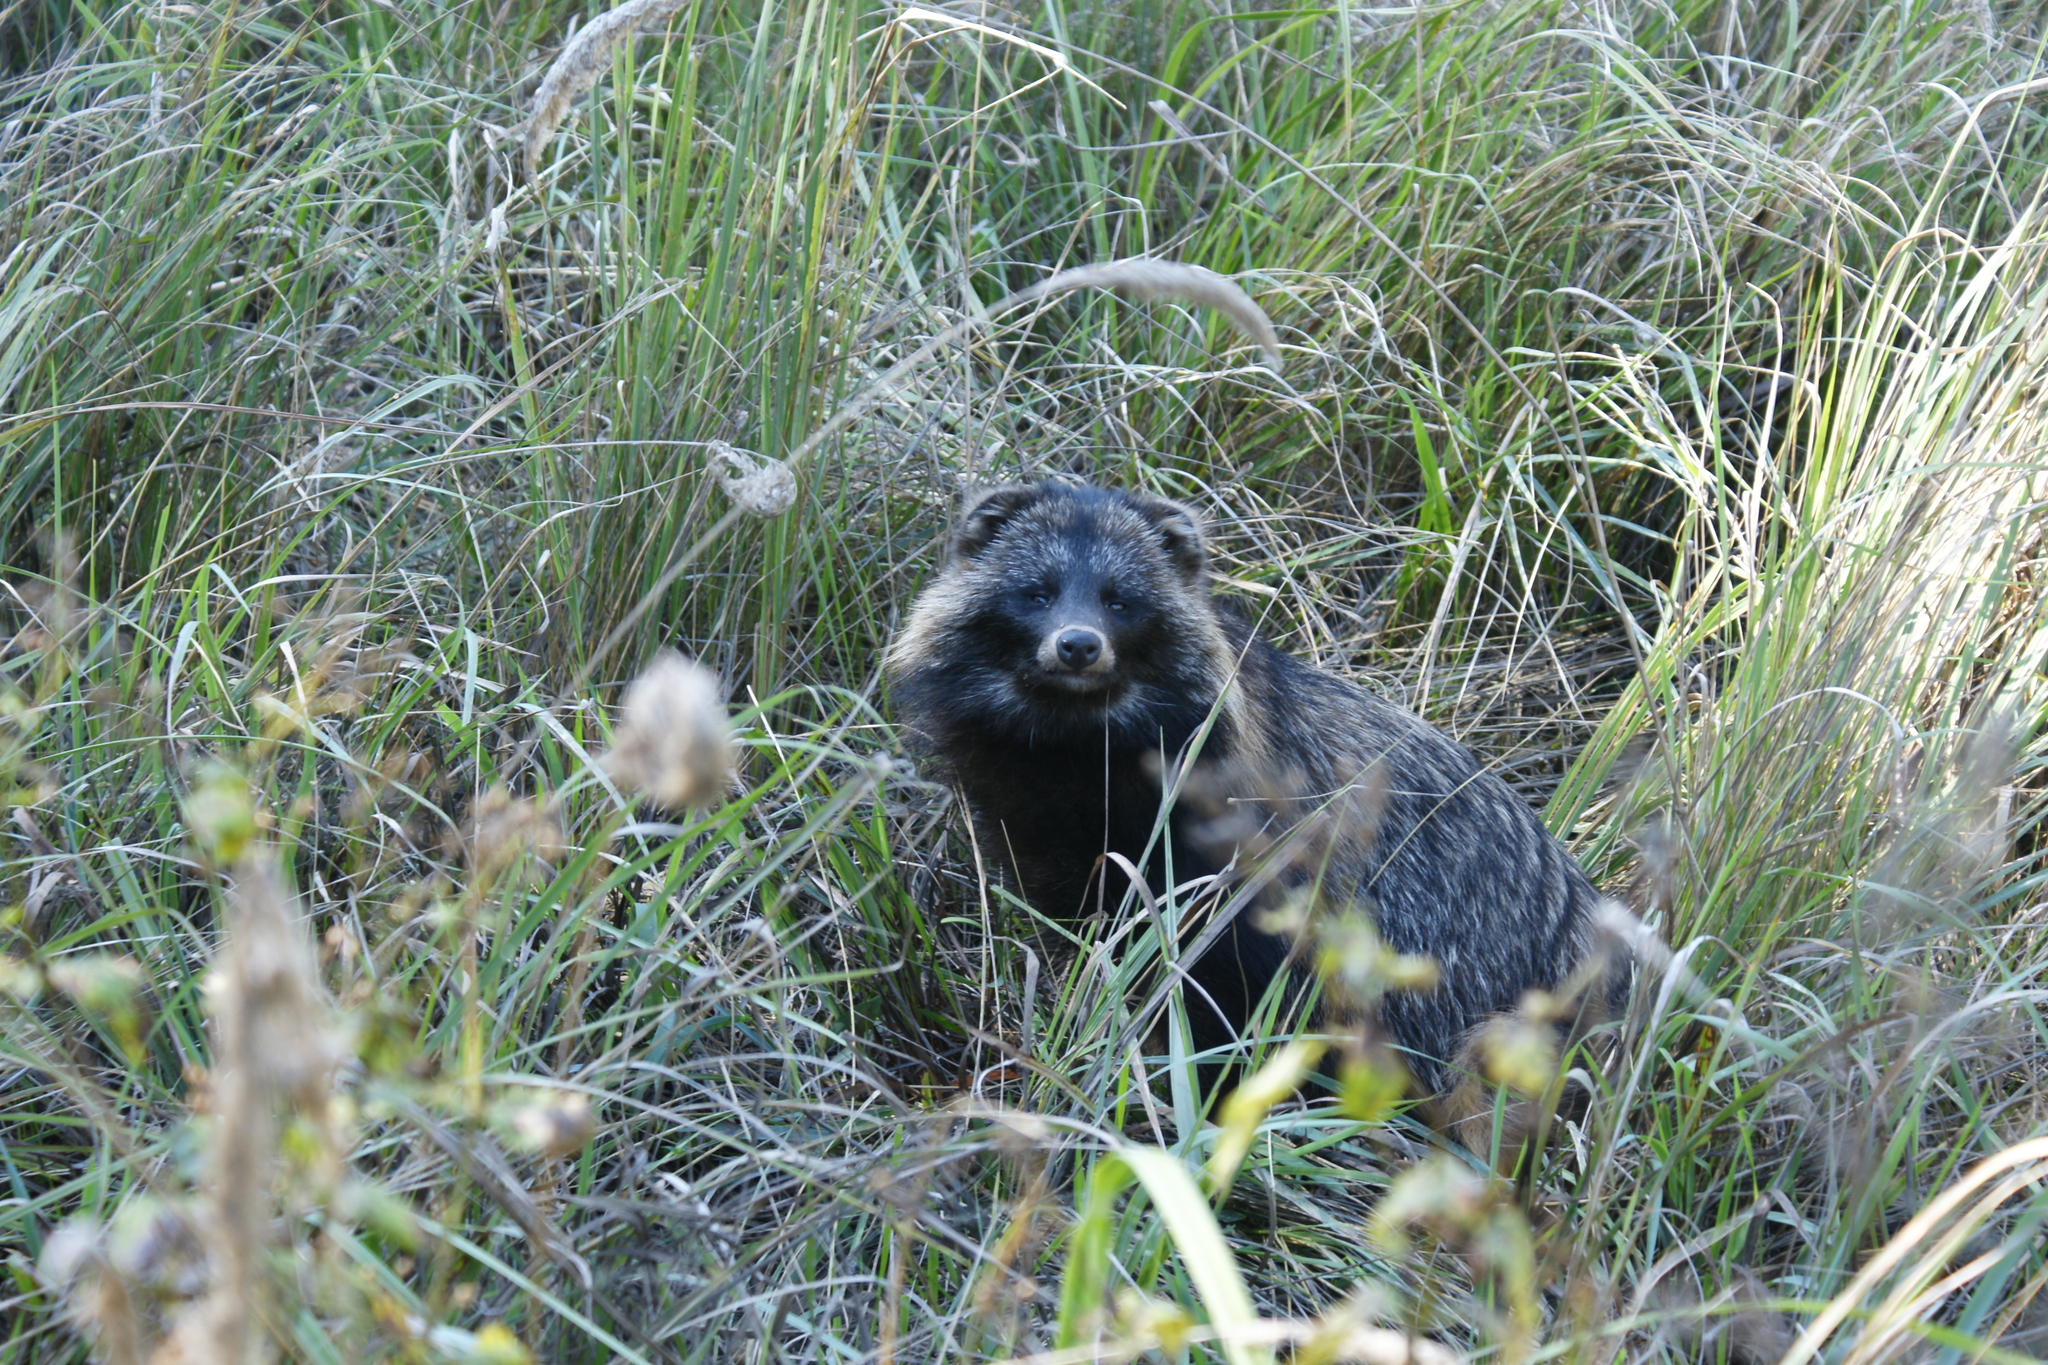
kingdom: Animalia
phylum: Chordata
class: Mammalia
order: Carnivora
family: Canidae
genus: Nyctereutes
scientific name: Nyctereutes procyonoides
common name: Raccoon dog
